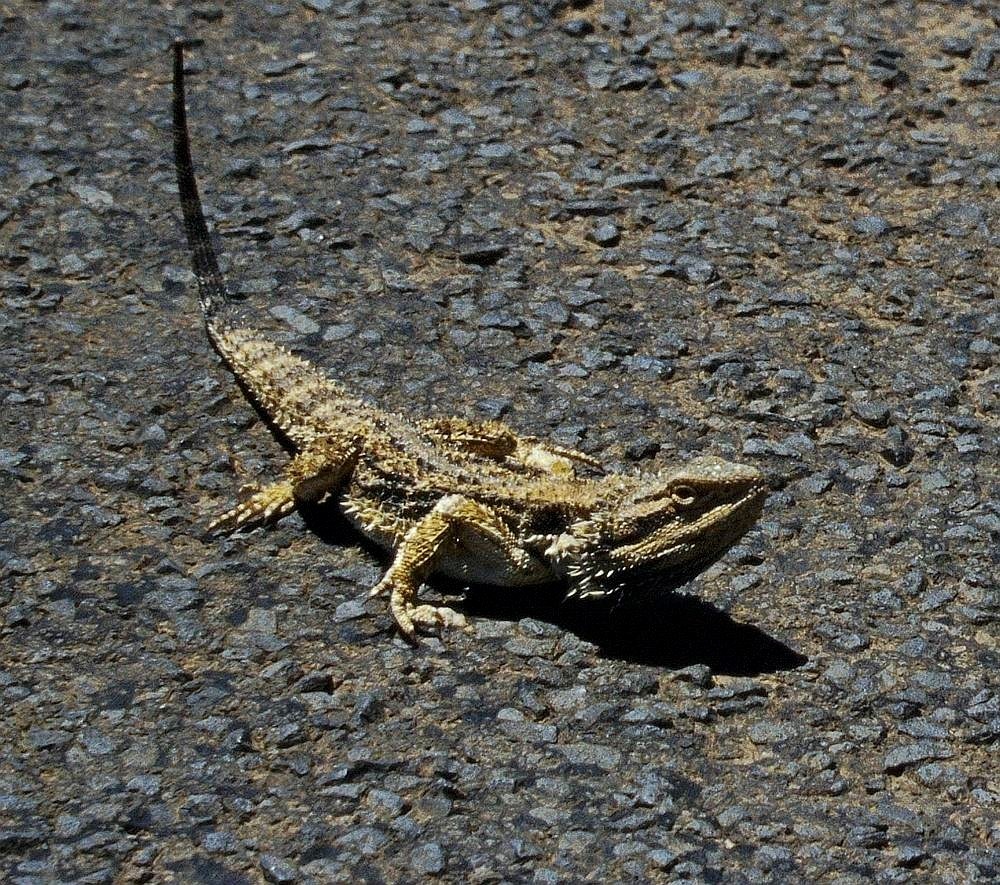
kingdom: Animalia
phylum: Chordata
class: Squamata
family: Agamidae
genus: Pogona
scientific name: Pogona barbata
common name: Bearded dragon
